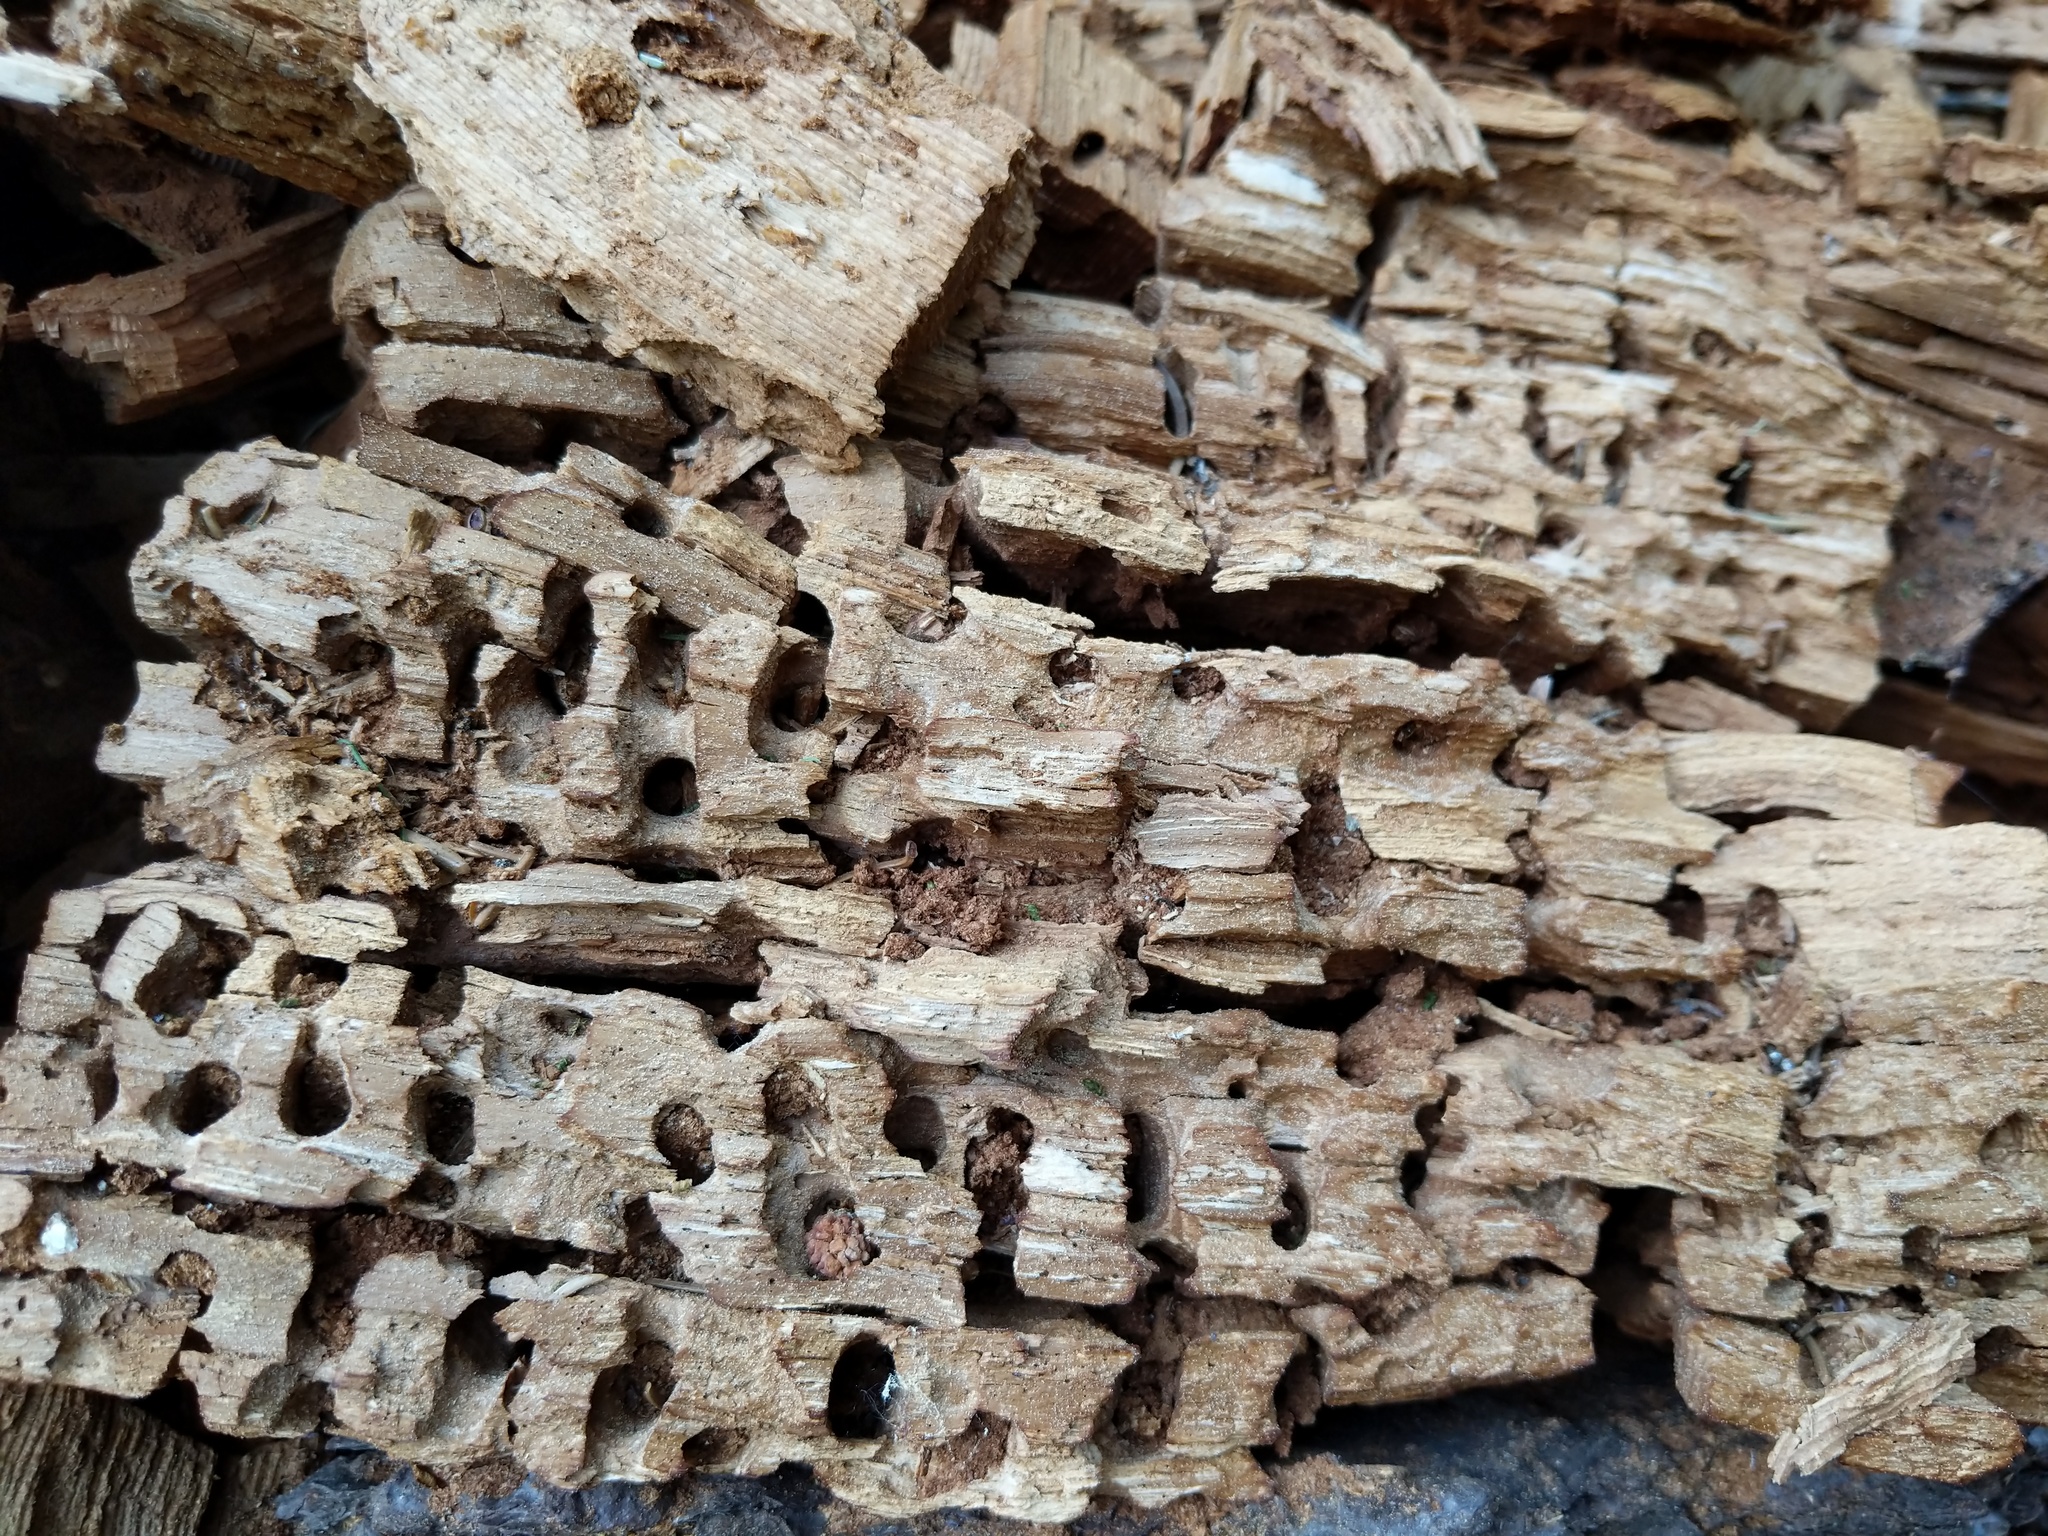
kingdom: Animalia
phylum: Chordata
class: Aves
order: Piciformes
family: Picidae
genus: Melanerpes
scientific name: Melanerpes formicivorus
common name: Acorn woodpecker
